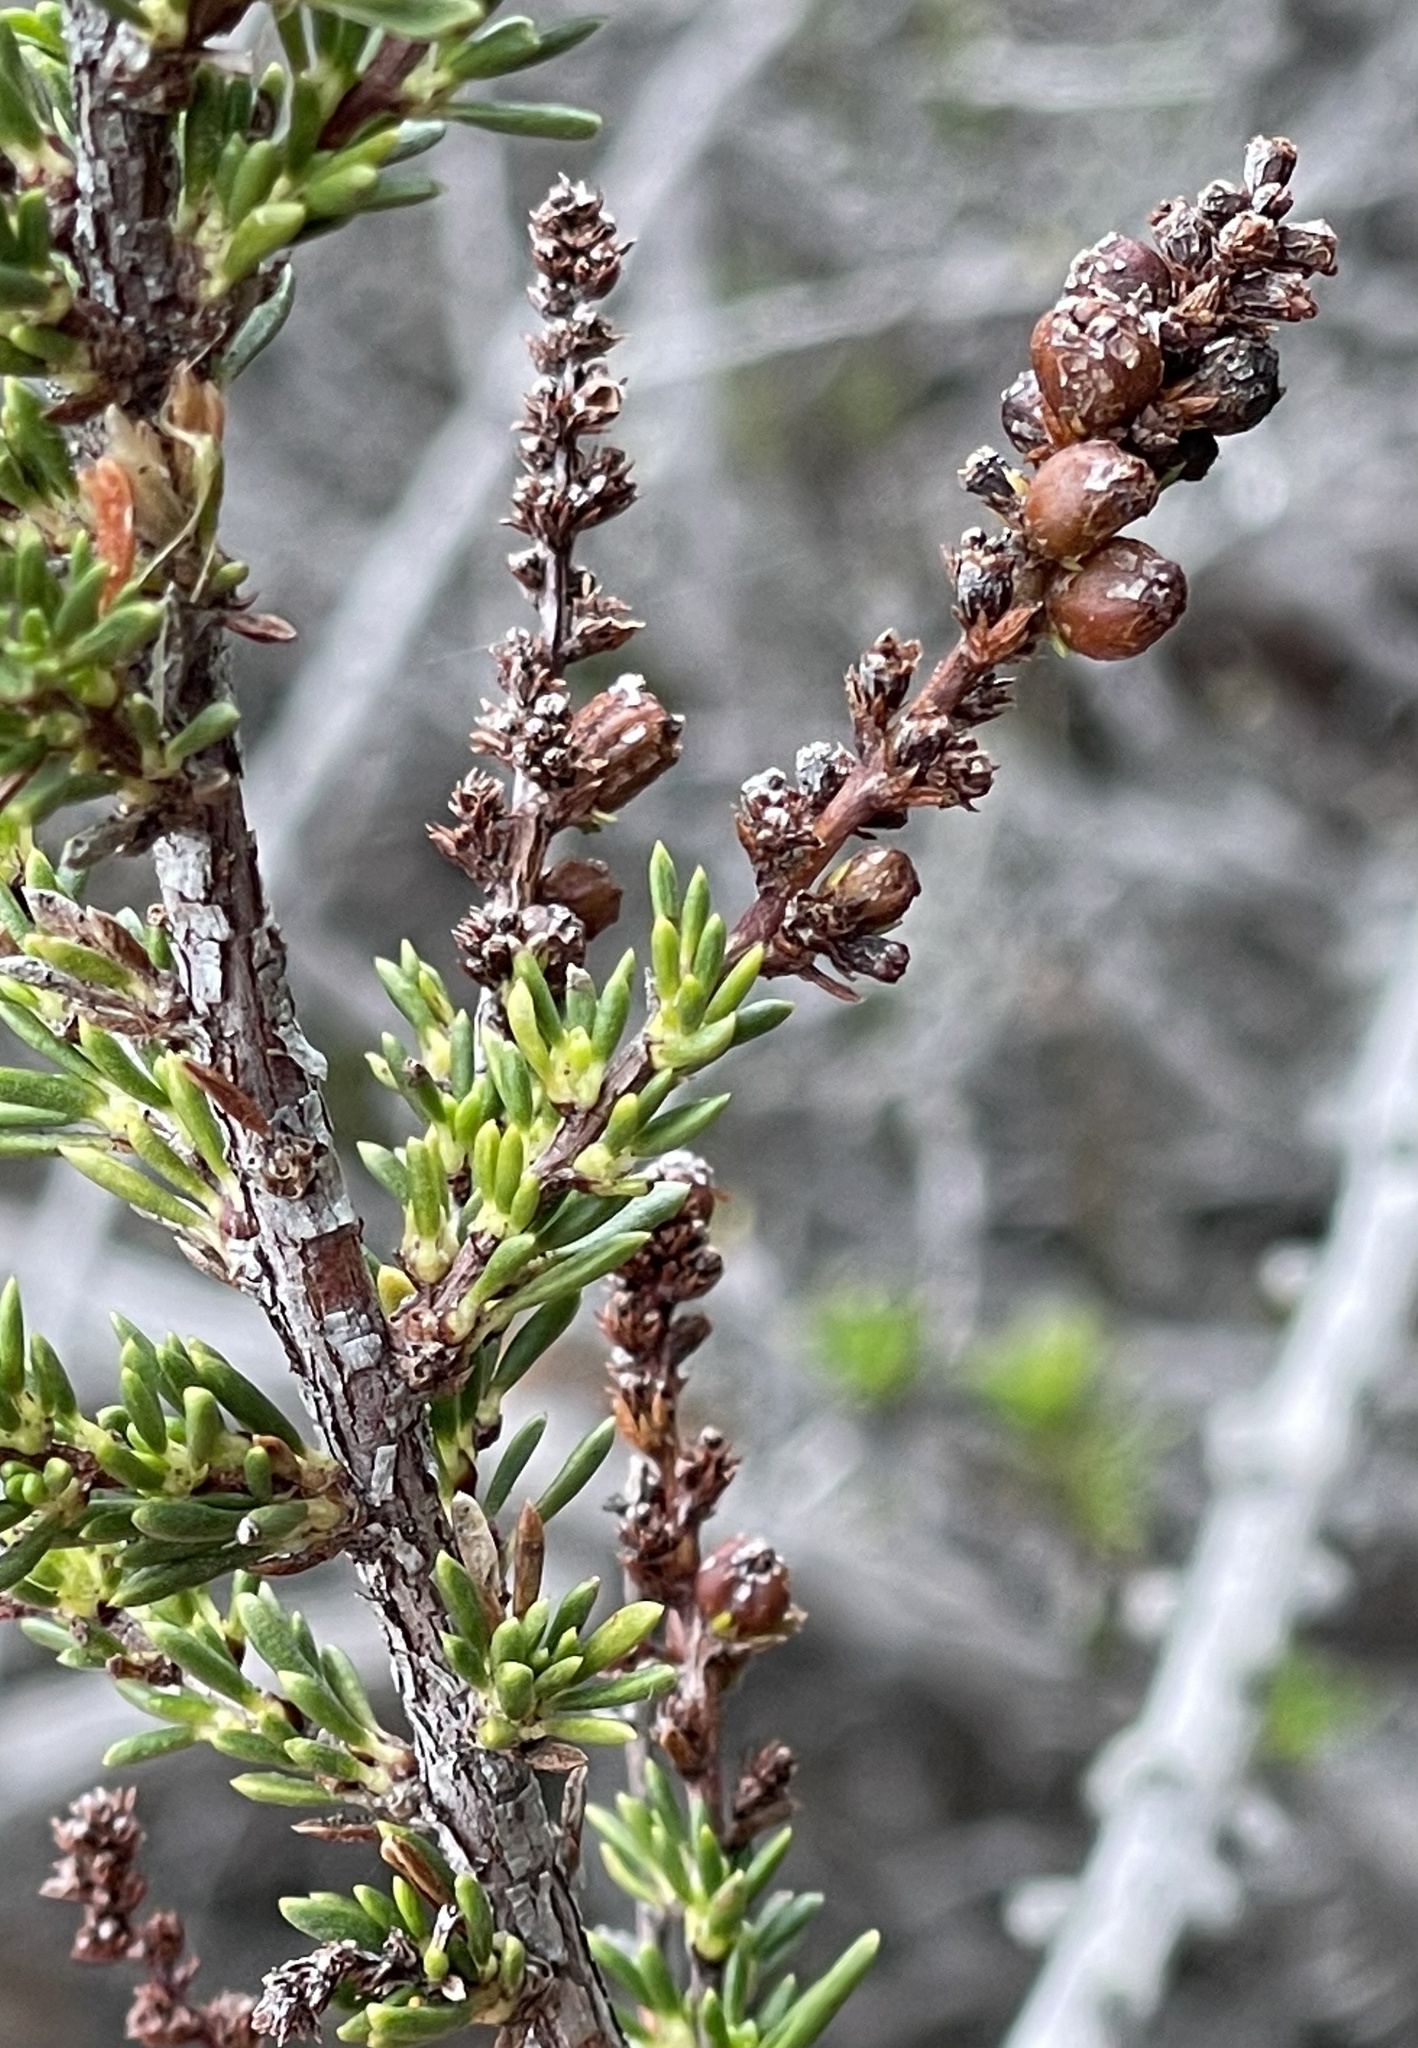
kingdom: Animalia
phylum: Arthropoda
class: Insecta
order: Diptera
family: Cecidomyiidae
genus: Asphondylia
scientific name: Asphondylia adenostoma
